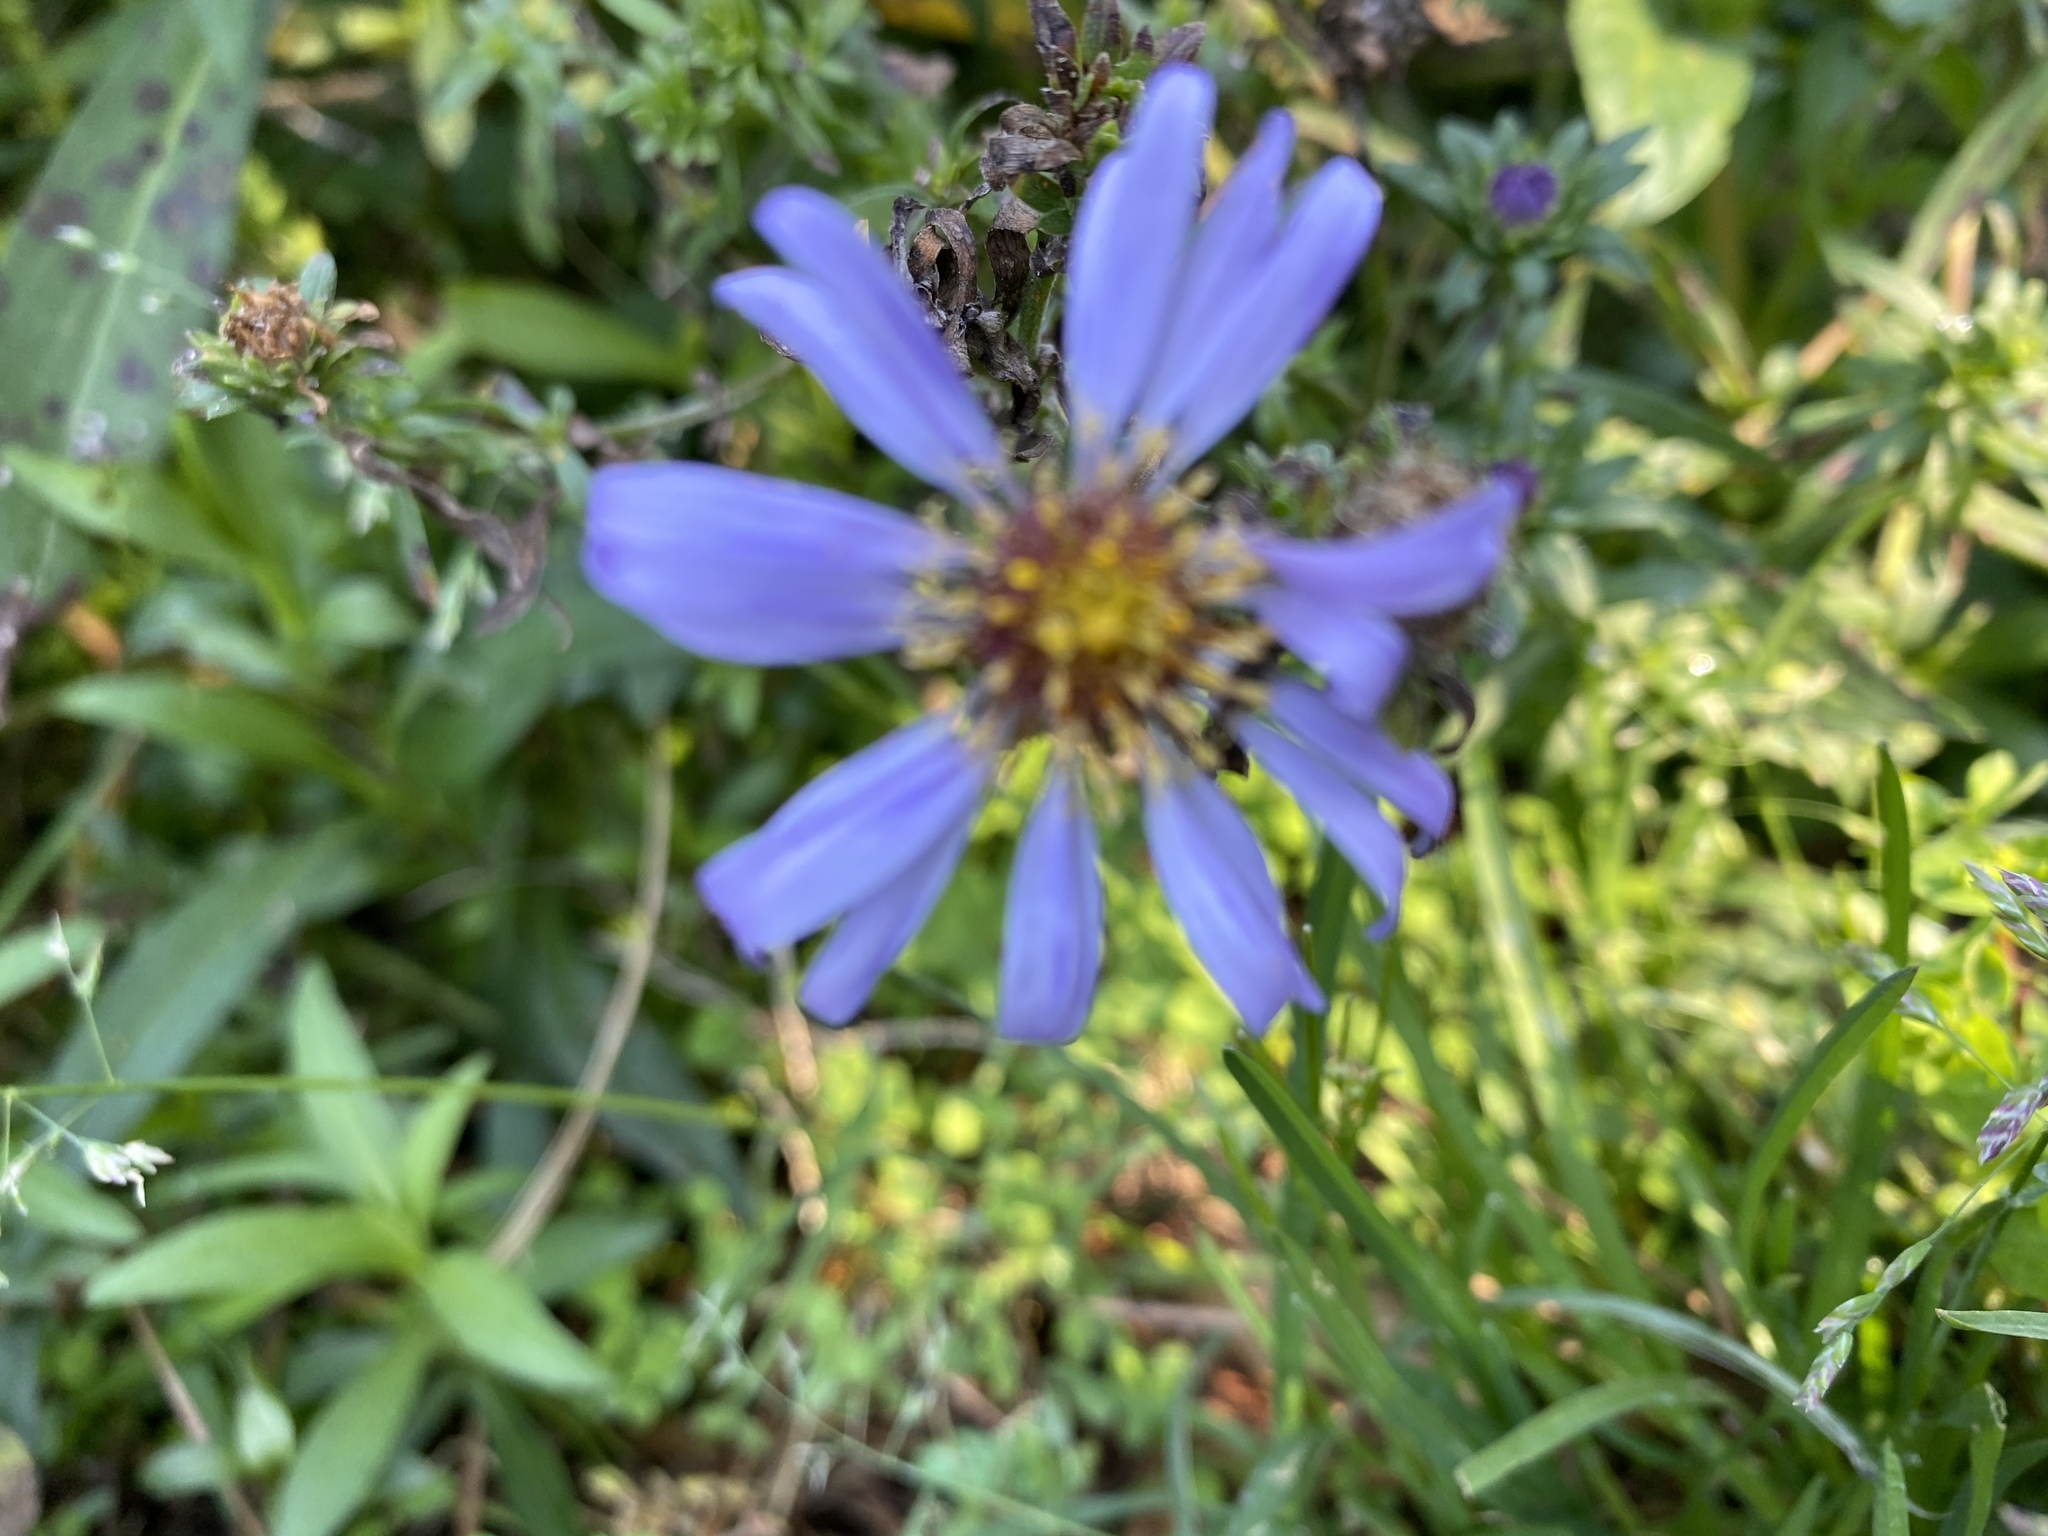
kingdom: Plantae
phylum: Tracheophyta
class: Magnoliopsida
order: Asterales
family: Asteraceae
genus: Symphyotrichum
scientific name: Symphyotrichum chilense
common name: Pacific aster
